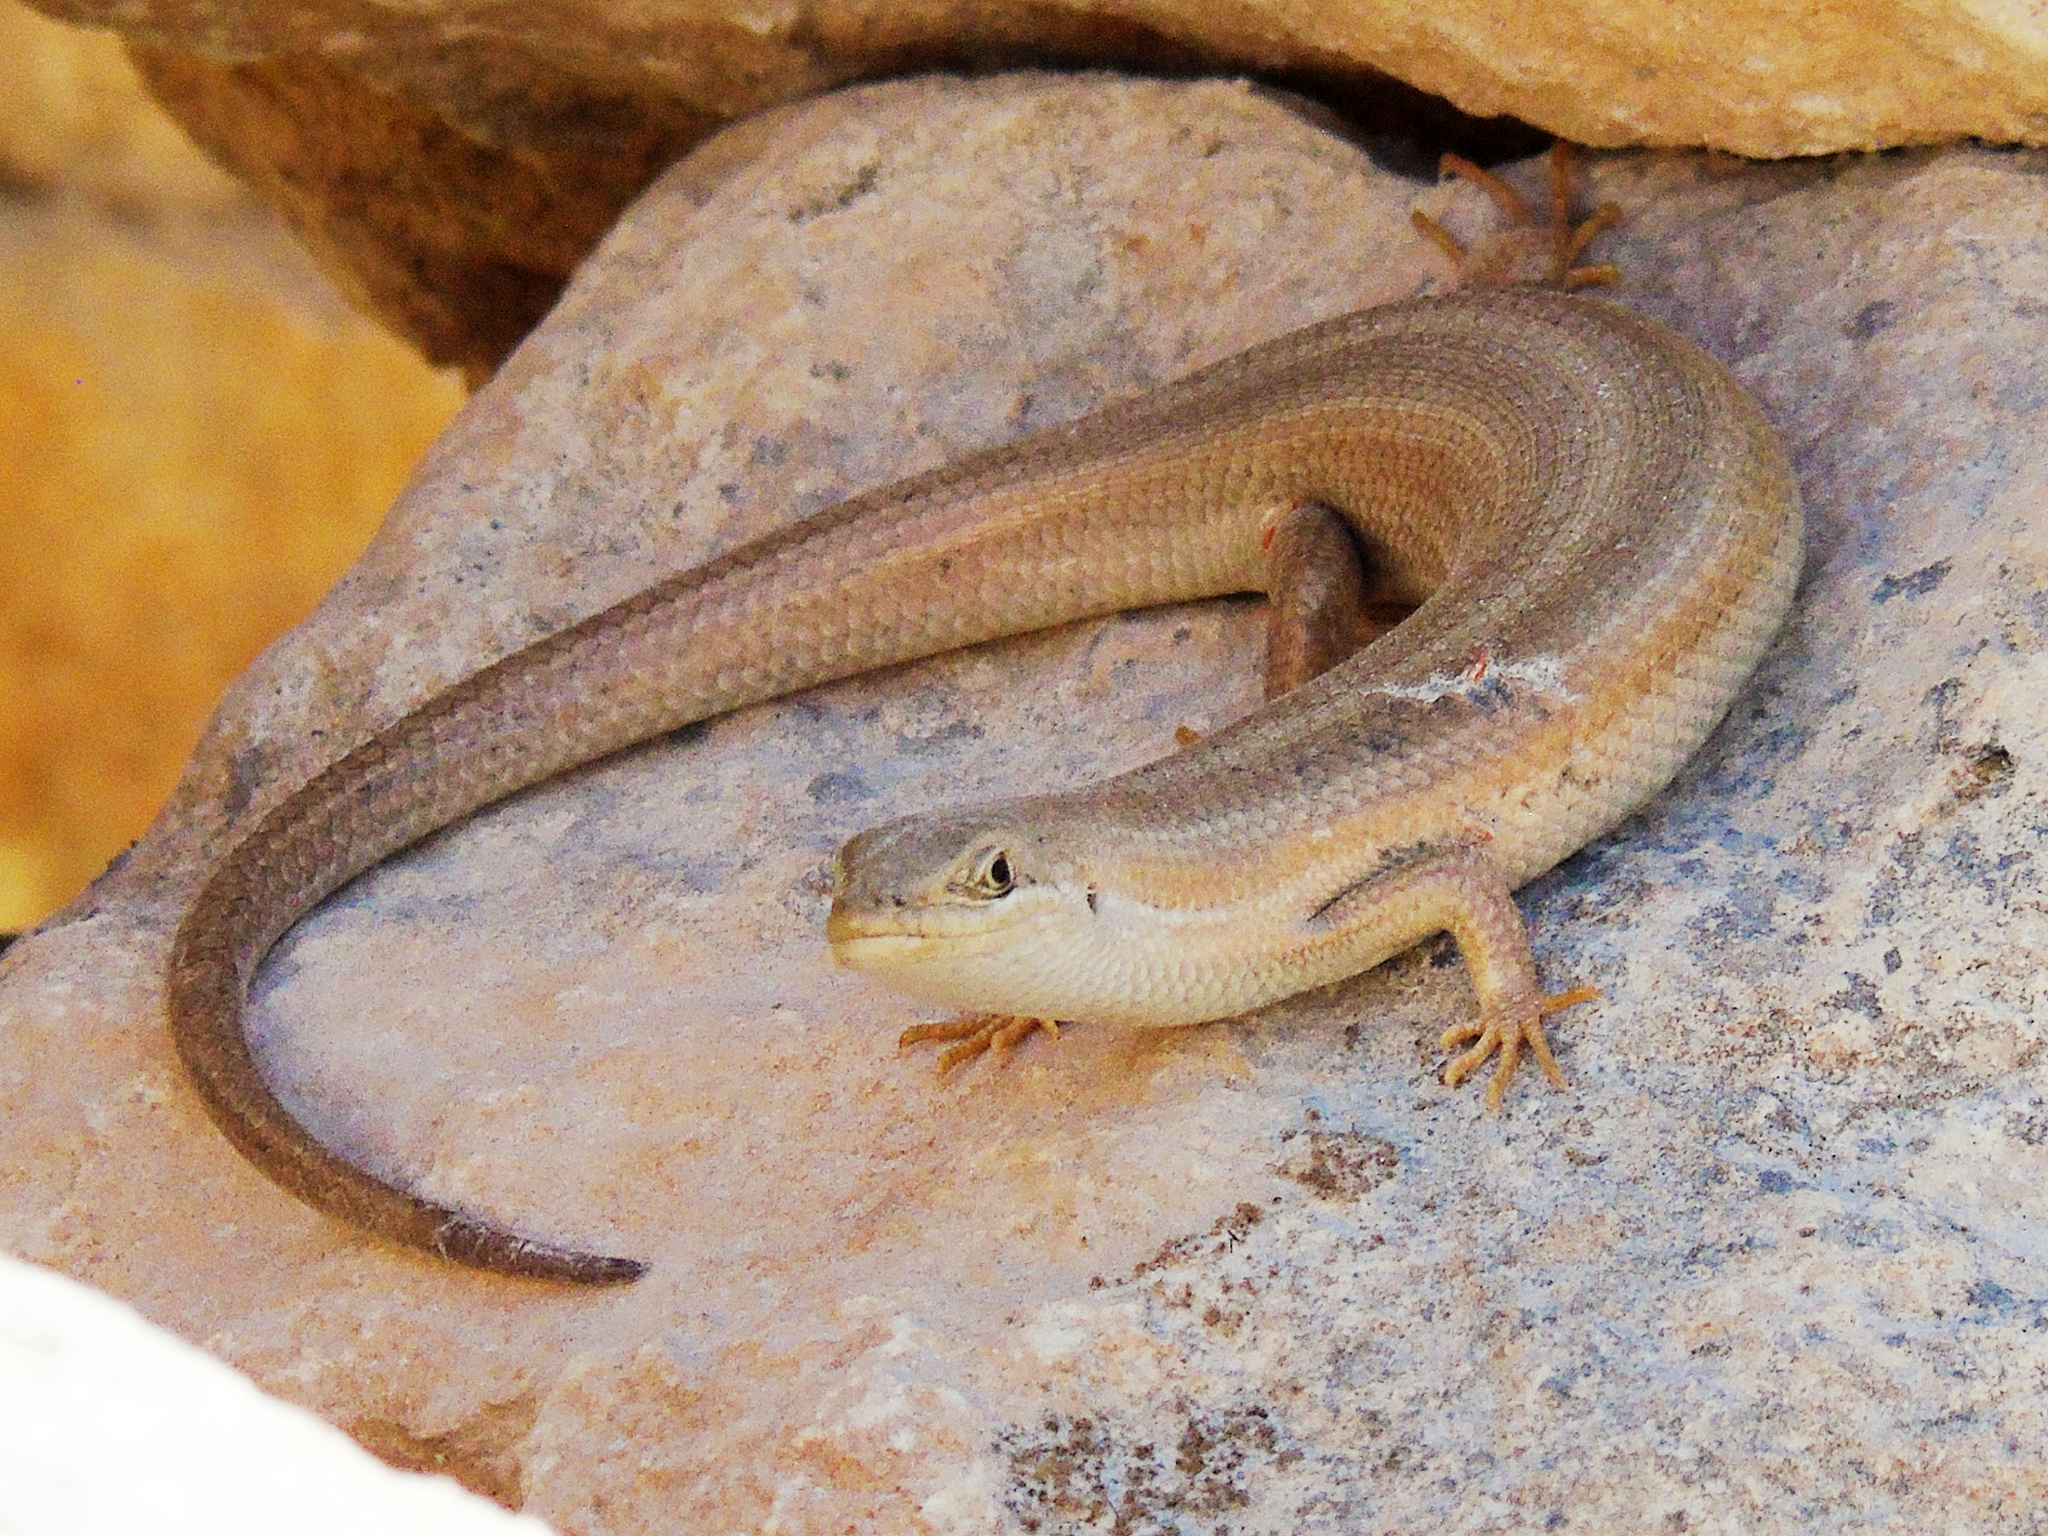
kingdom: Animalia
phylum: Chordata
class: Squamata
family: Scincidae
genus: Heremites
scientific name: Heremites vittatus
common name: Bridled mabuya
